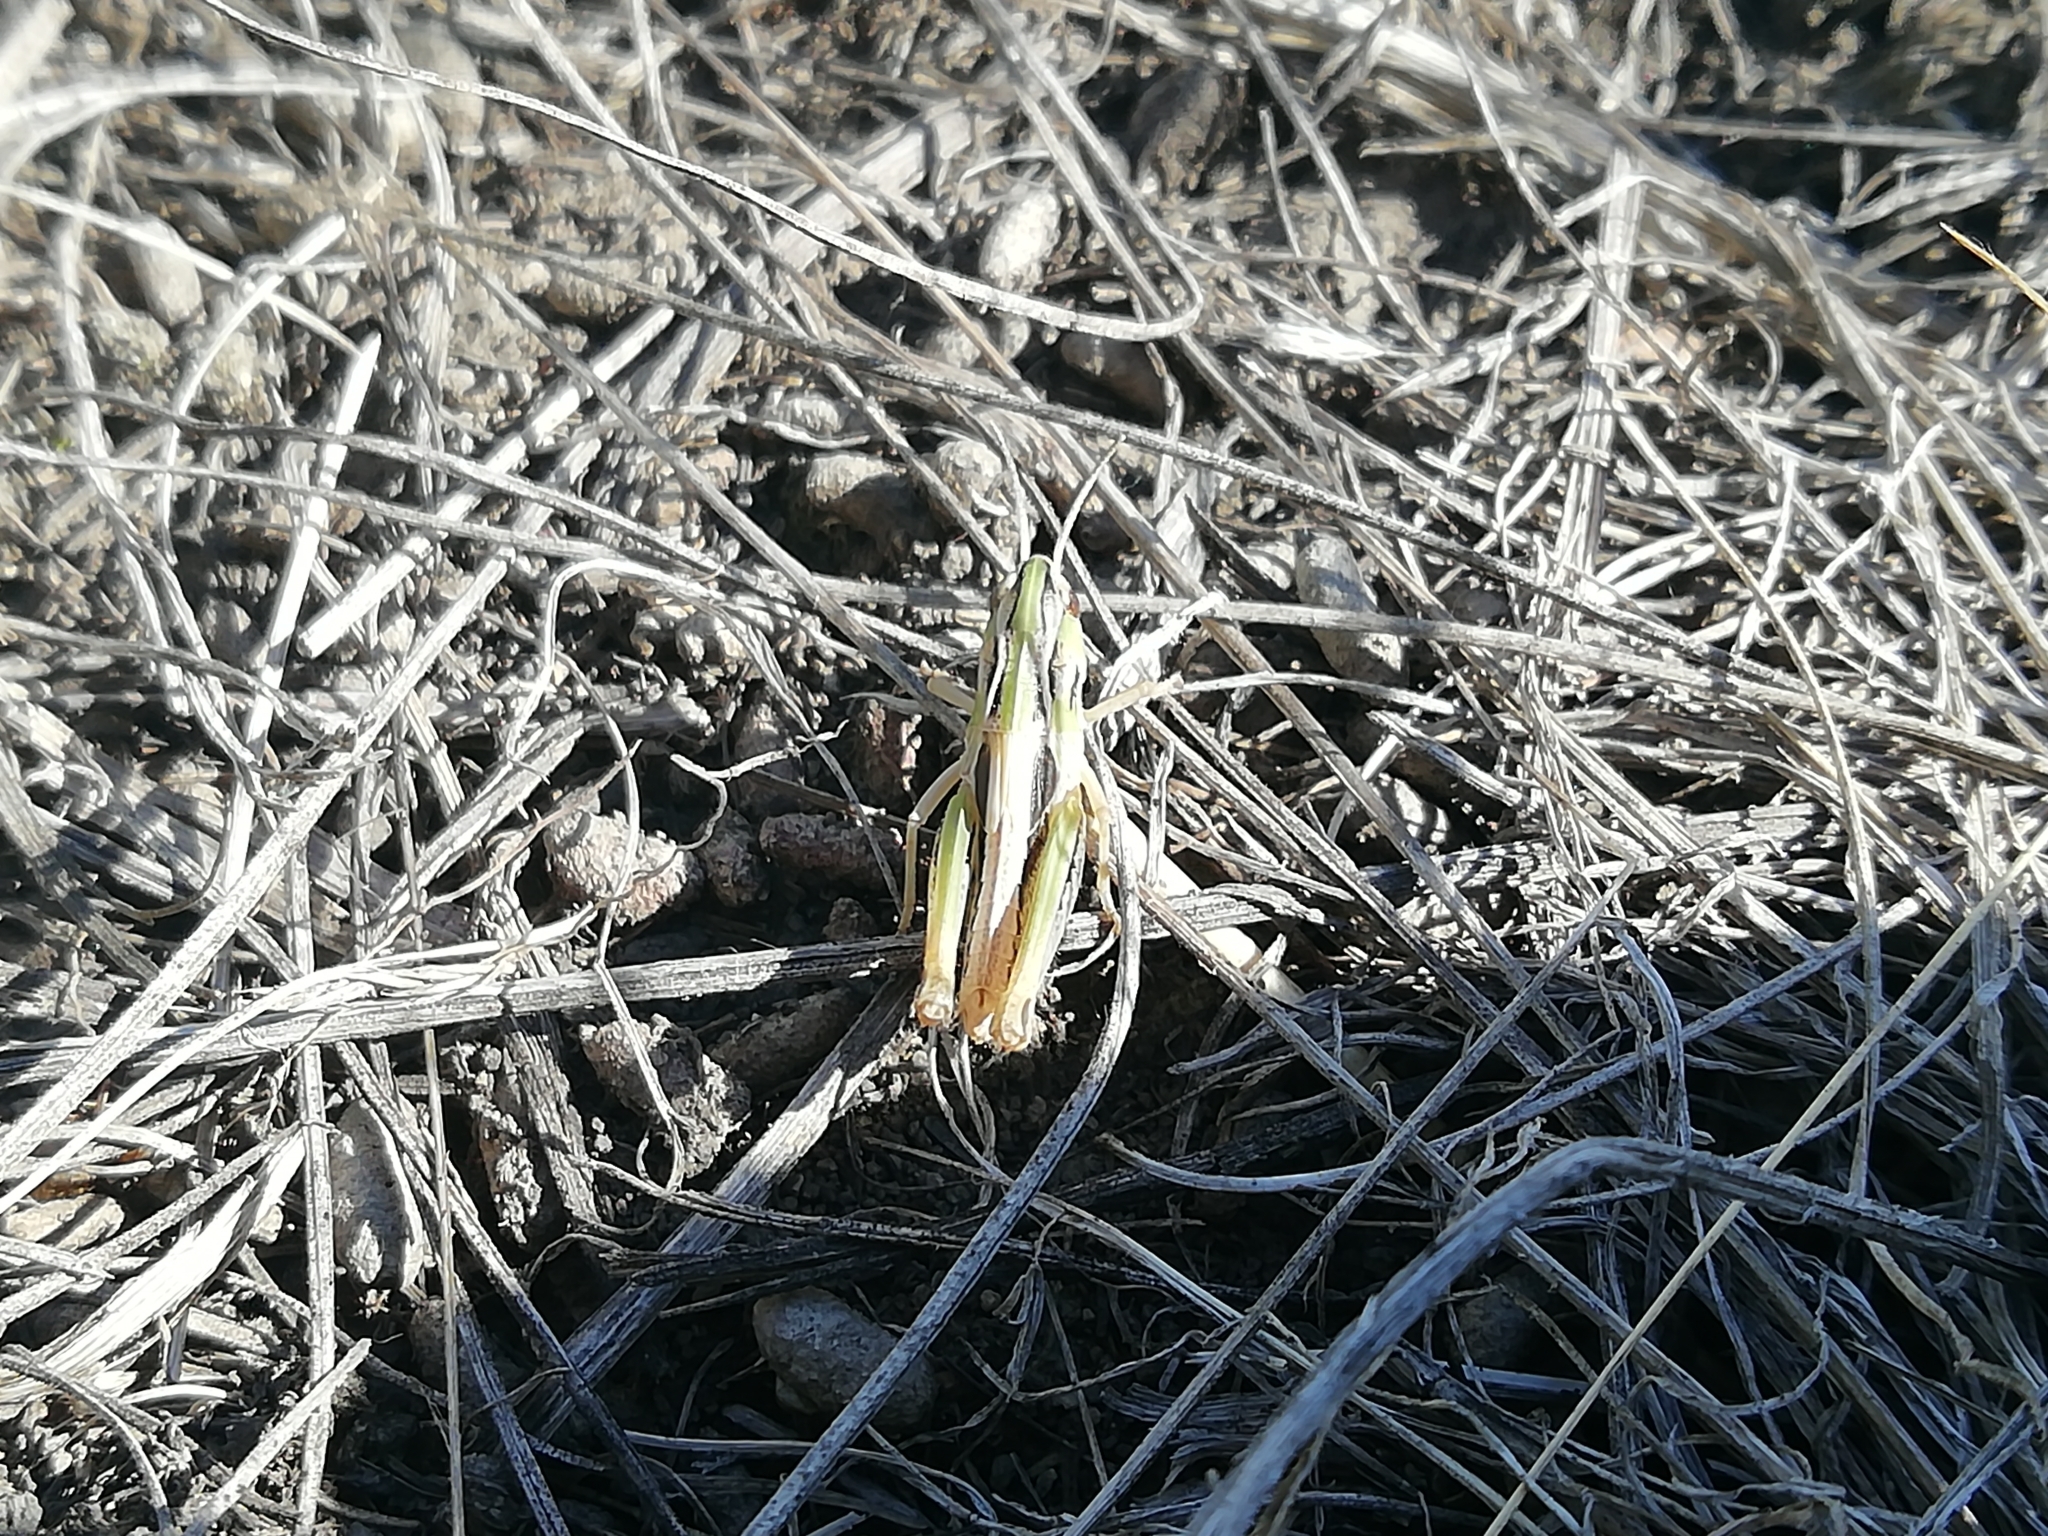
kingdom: Animalia
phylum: Arthropoda
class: Insecta
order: Orthoptera
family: Acrididae
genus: Stenobothrus
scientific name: Stenobothrus nigromaculatus
